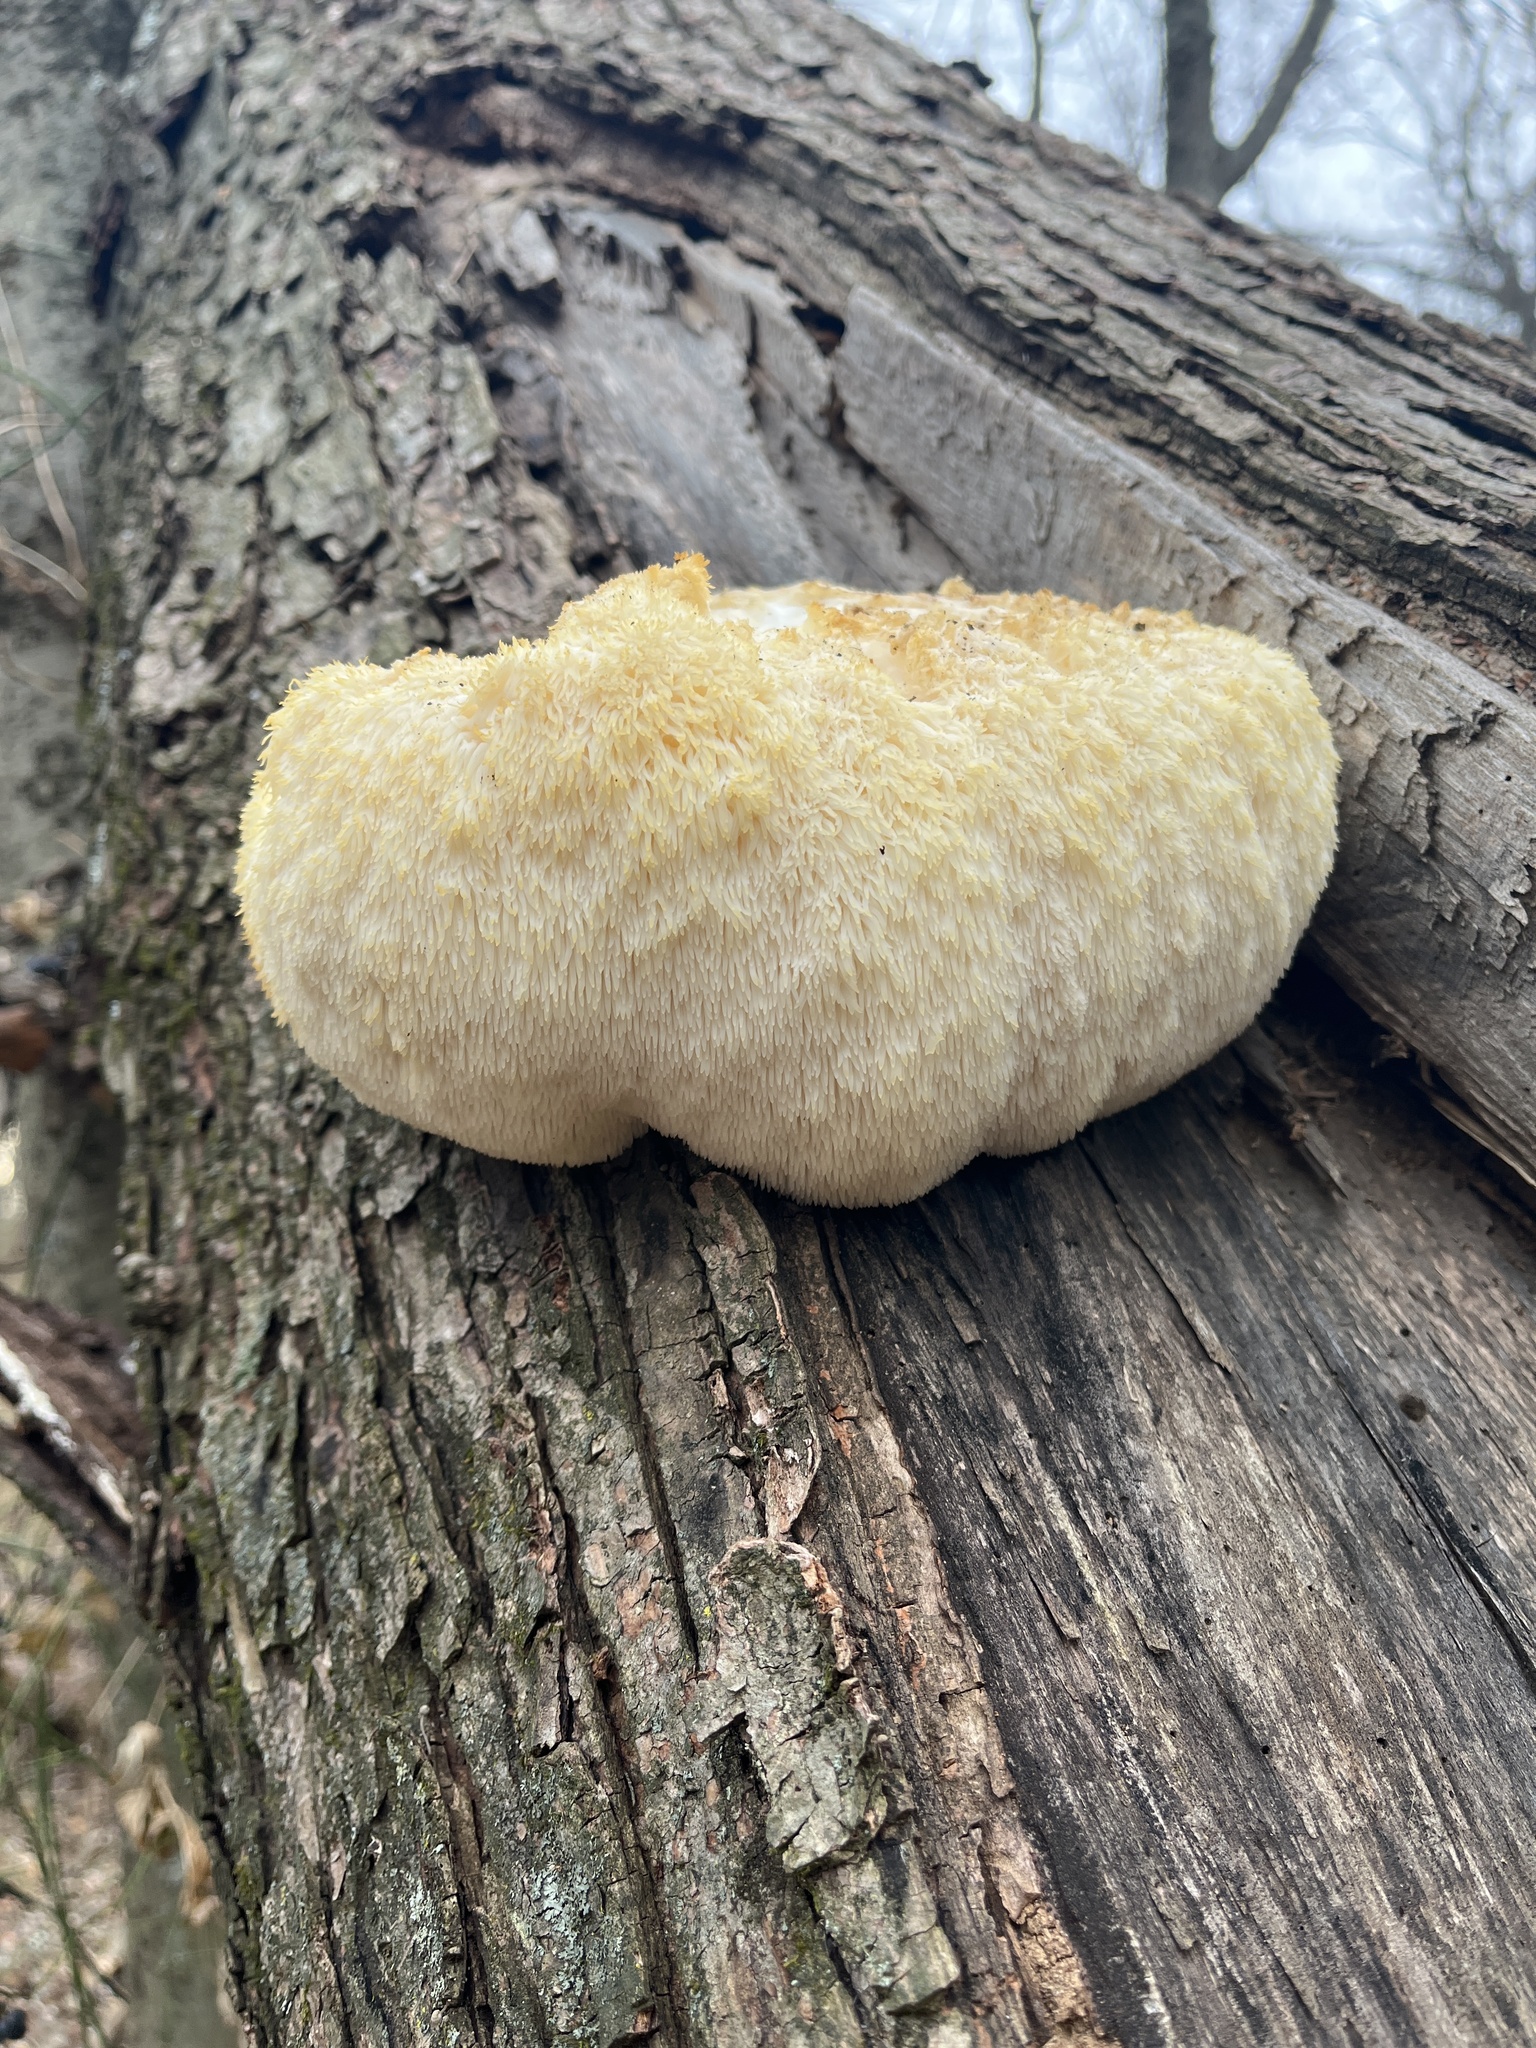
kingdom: Fungi
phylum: Basidiomycota
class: Agaricomycetes
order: Russulales
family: Hericiaceae
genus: Hericium
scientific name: Hericium erinaceus
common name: Bearded tooth
